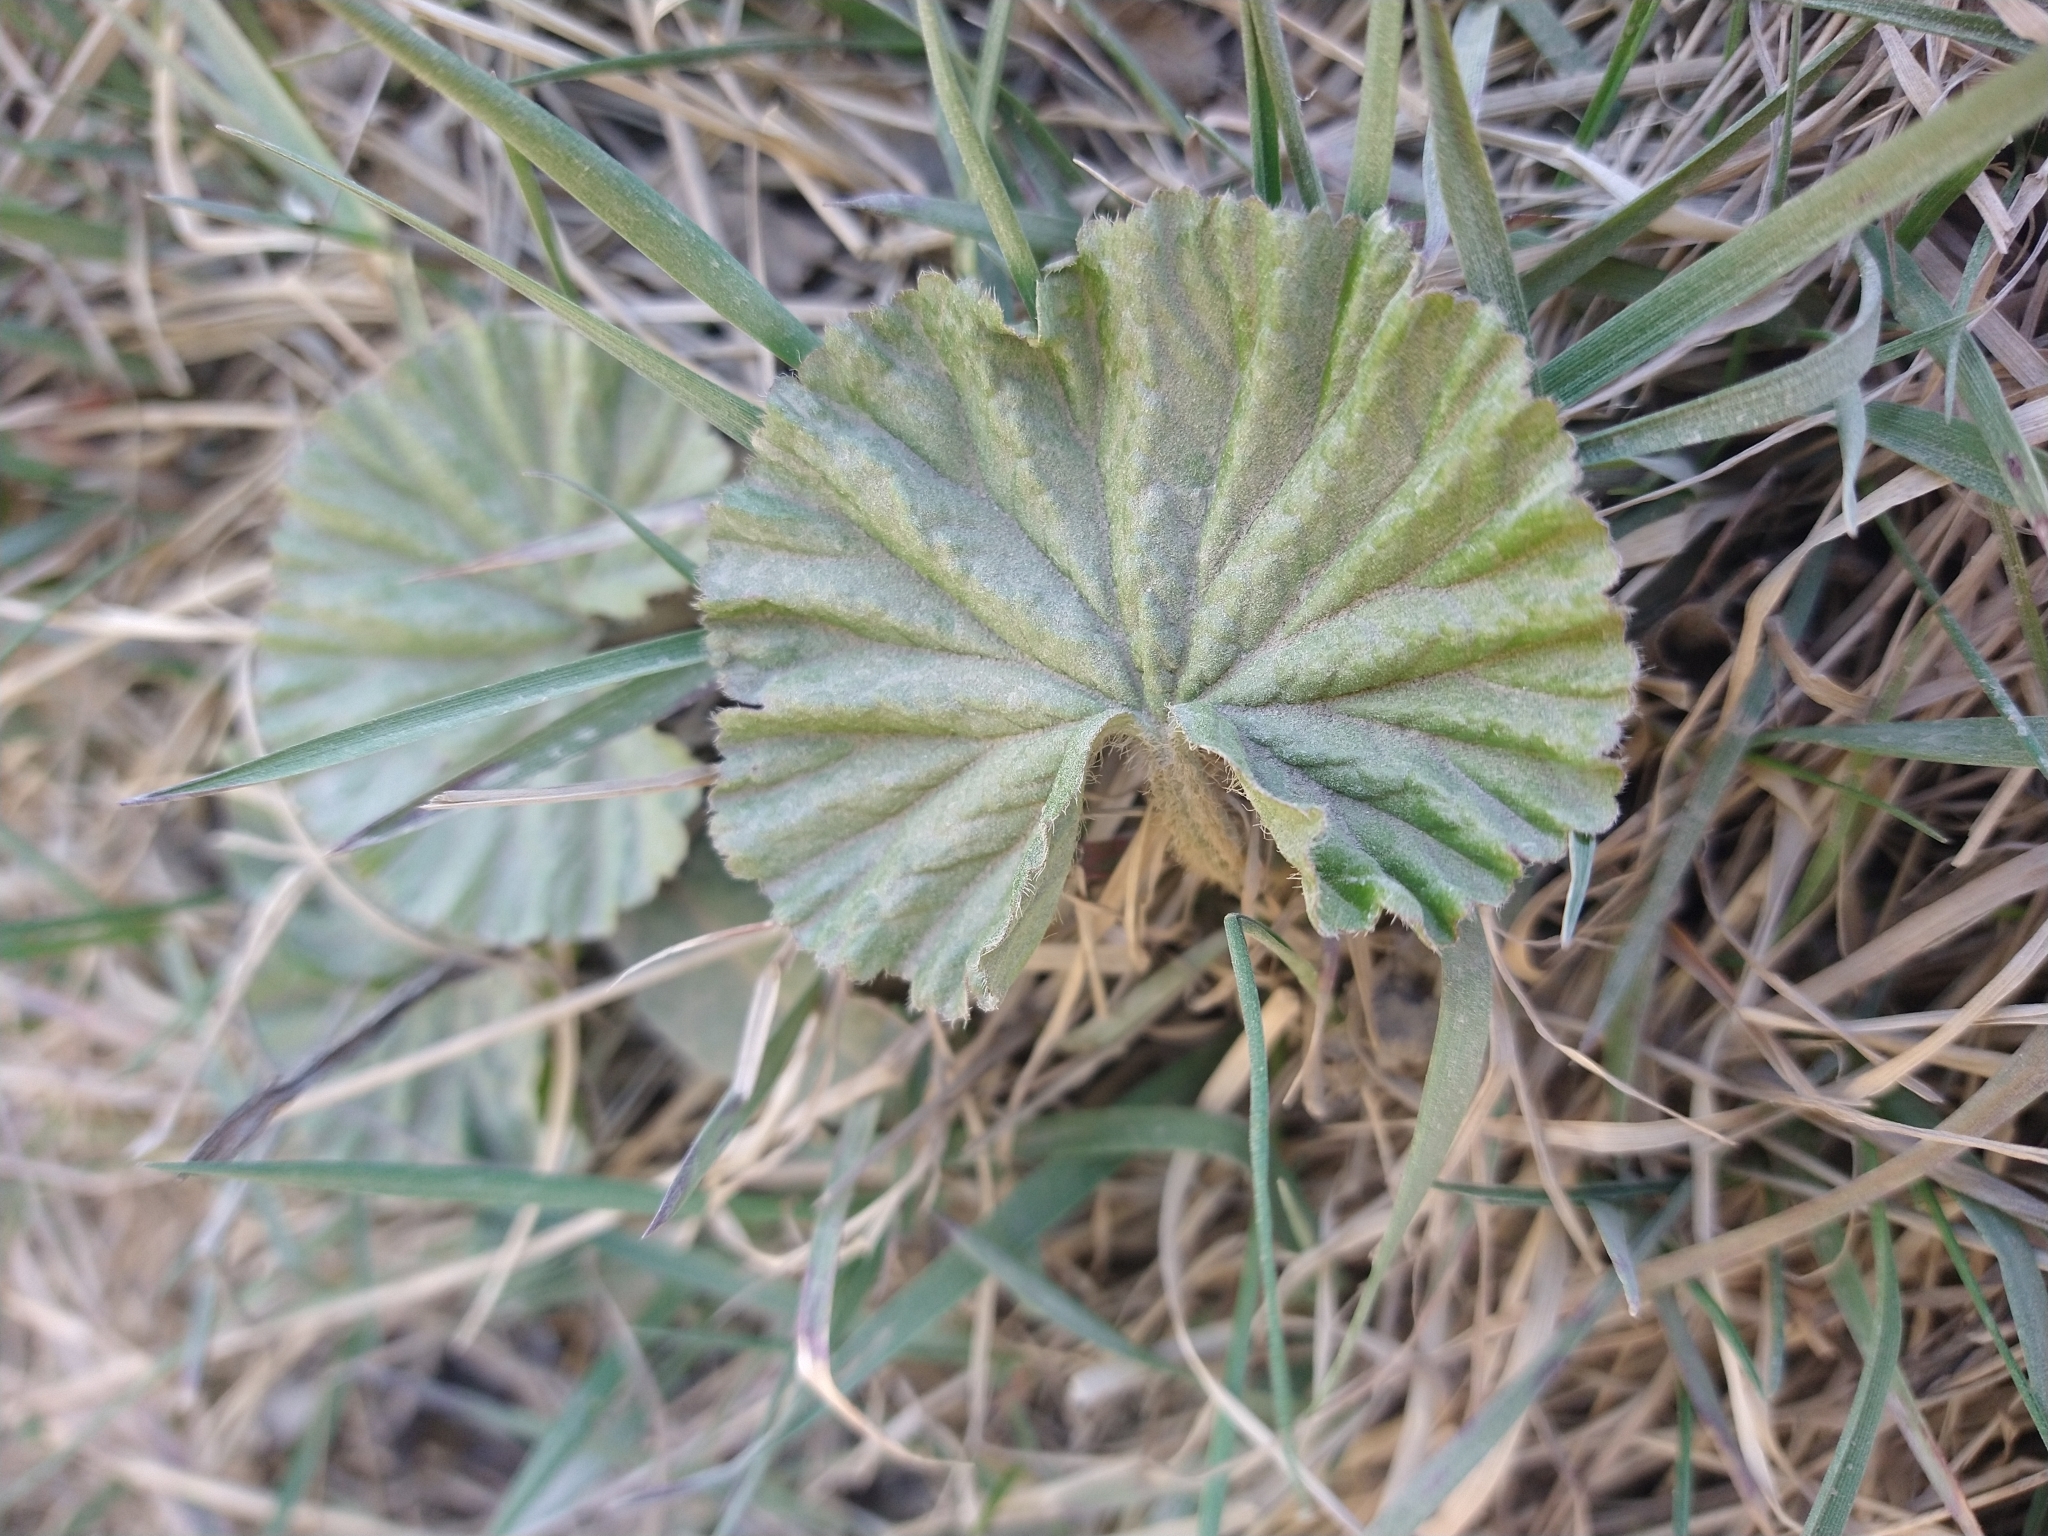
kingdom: Plantae
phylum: Tracheophyta
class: Magnoliopsida
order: Gunnerales
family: Gunneraceae
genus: Gunnera
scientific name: Gunnera magellanica
